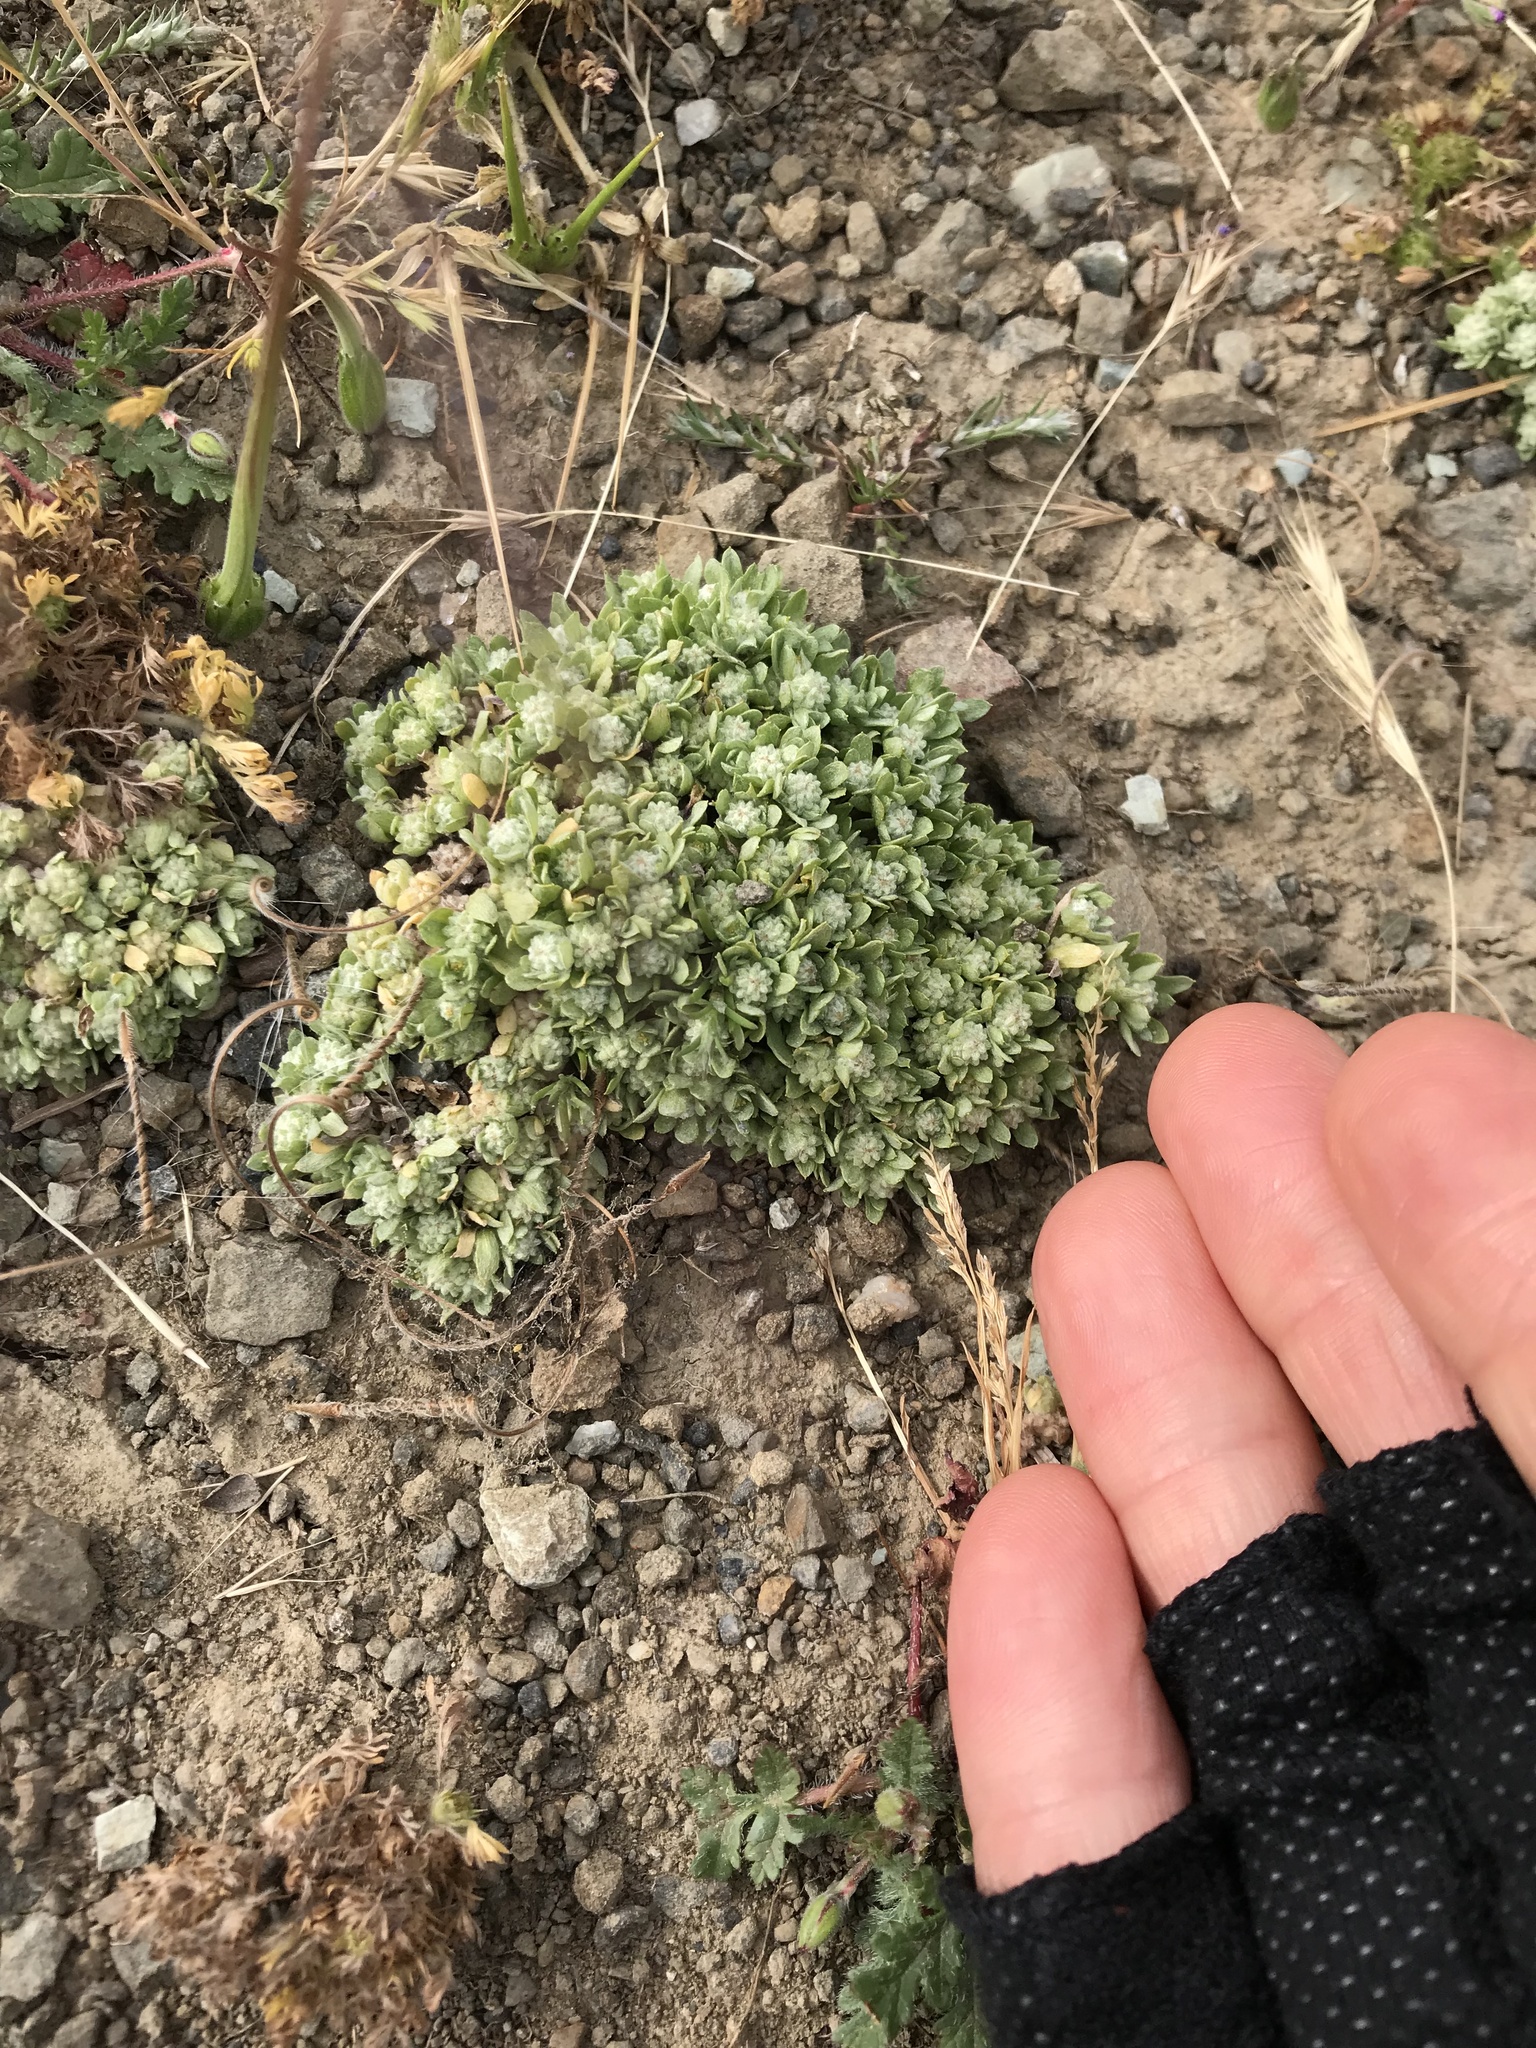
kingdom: Plantae
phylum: Tracheophyta
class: Magnoliopsida
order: Asterales
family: Asteraceae
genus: Psilocarphus
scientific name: Psilocarphus tenellus
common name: Slender woolly-marbles
